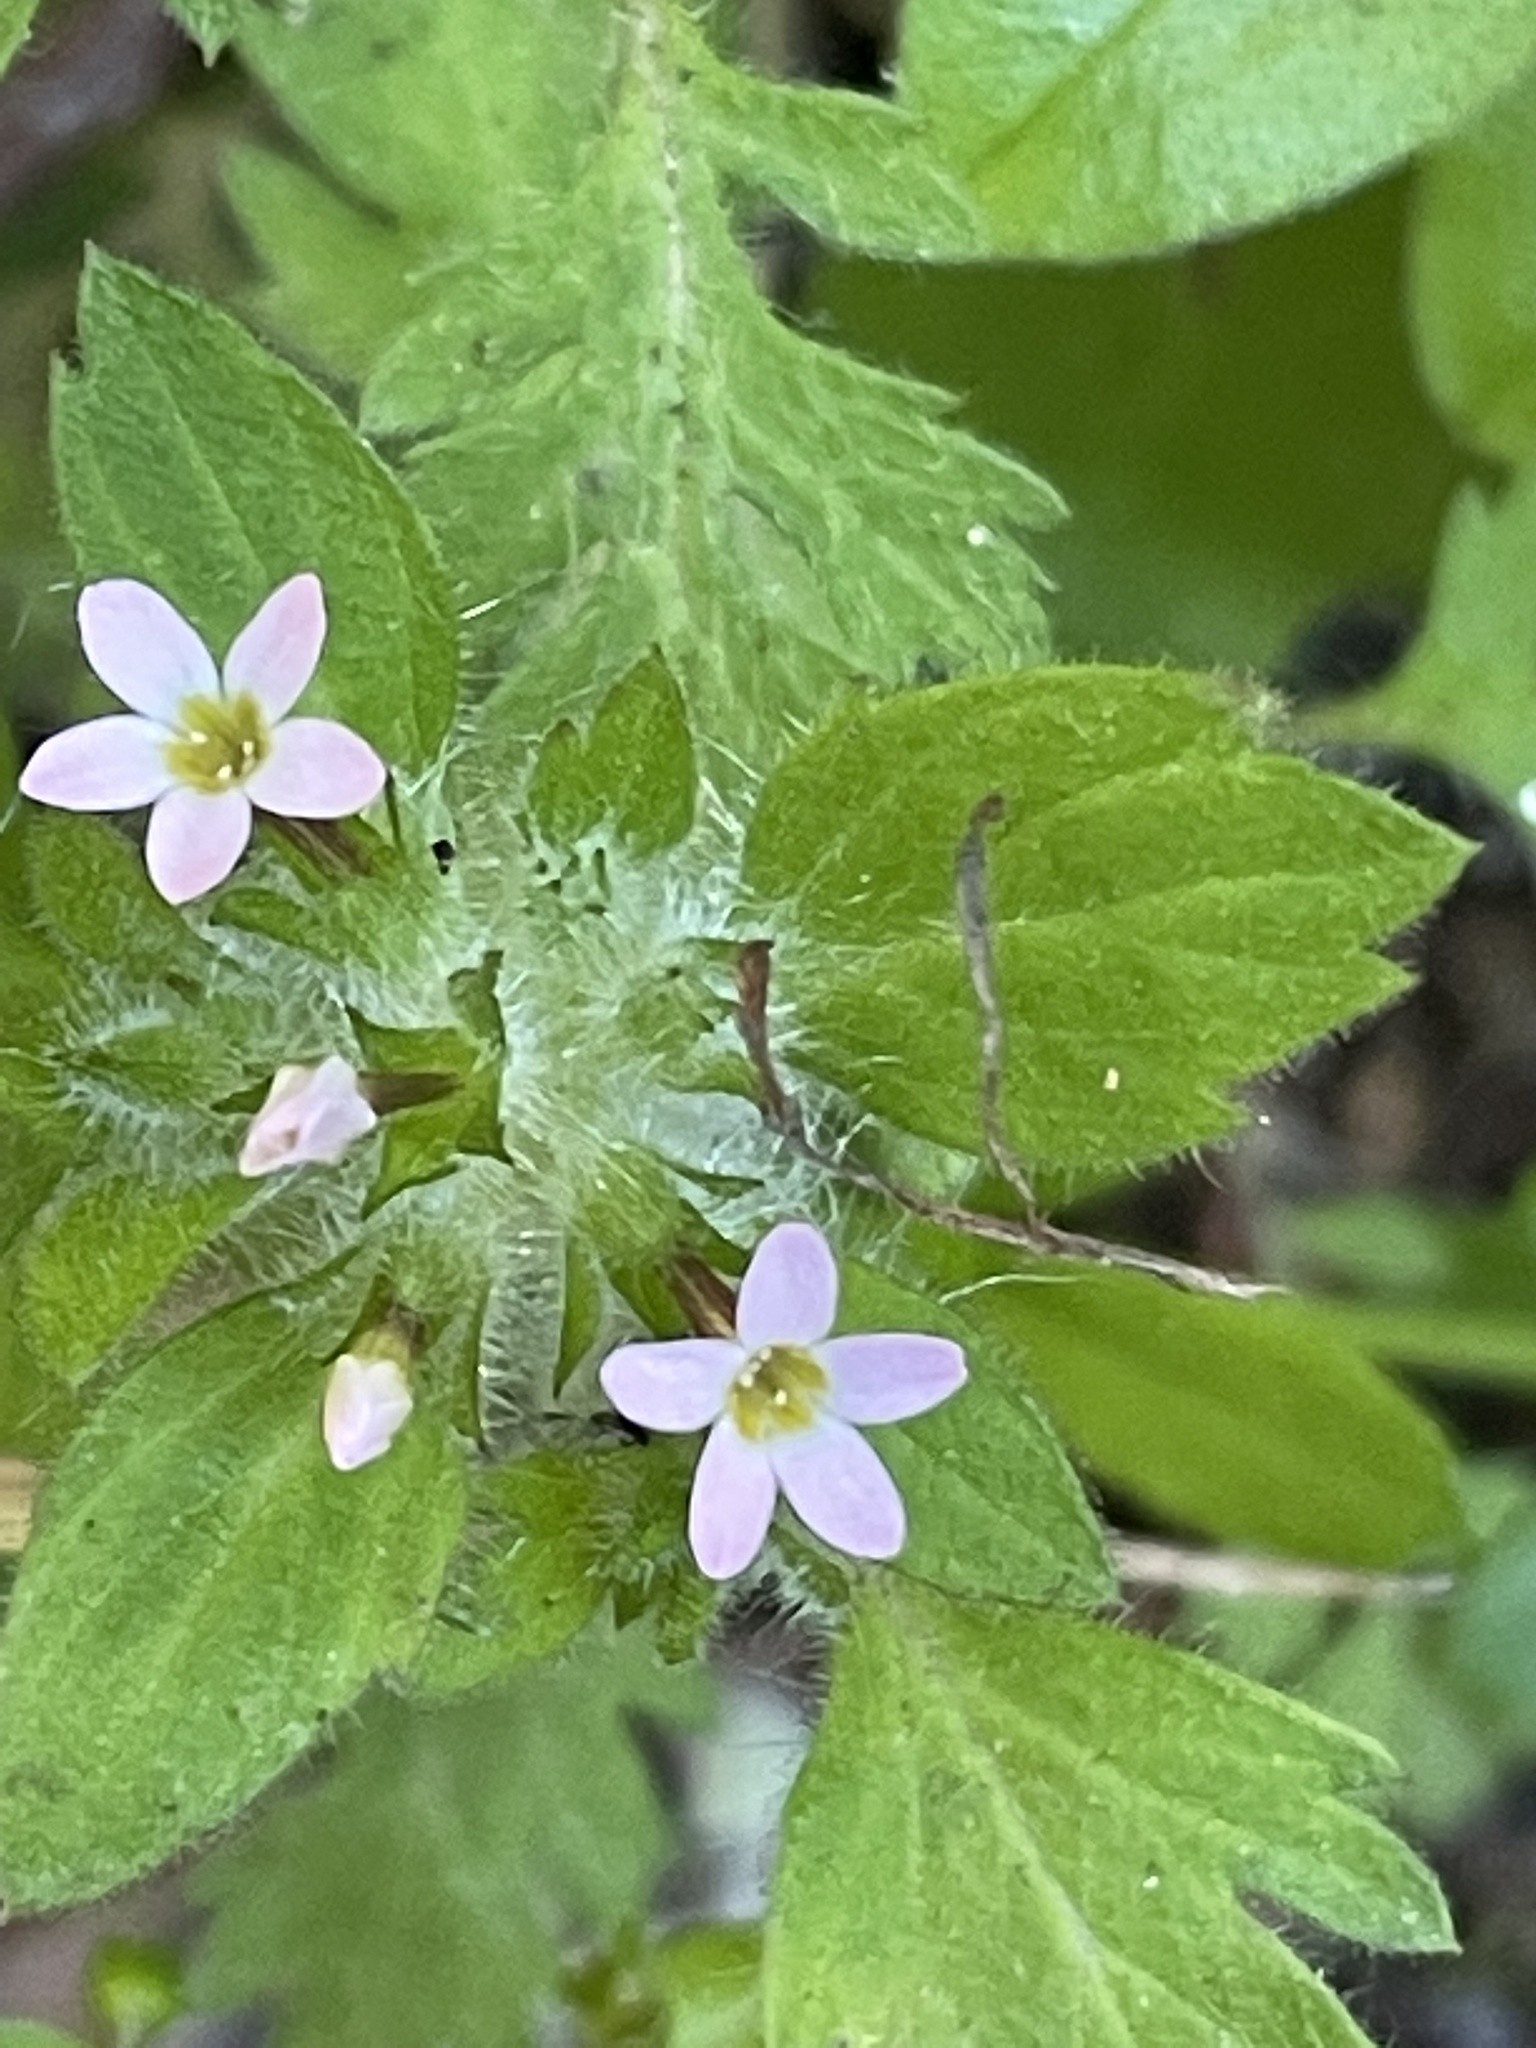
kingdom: Plantae
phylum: Tracheophyta
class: Magnoliopsida
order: Ericales
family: Polemoniaceae
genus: Collomia
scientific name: Collomia heterophylla
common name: Variable-leaved collomia
